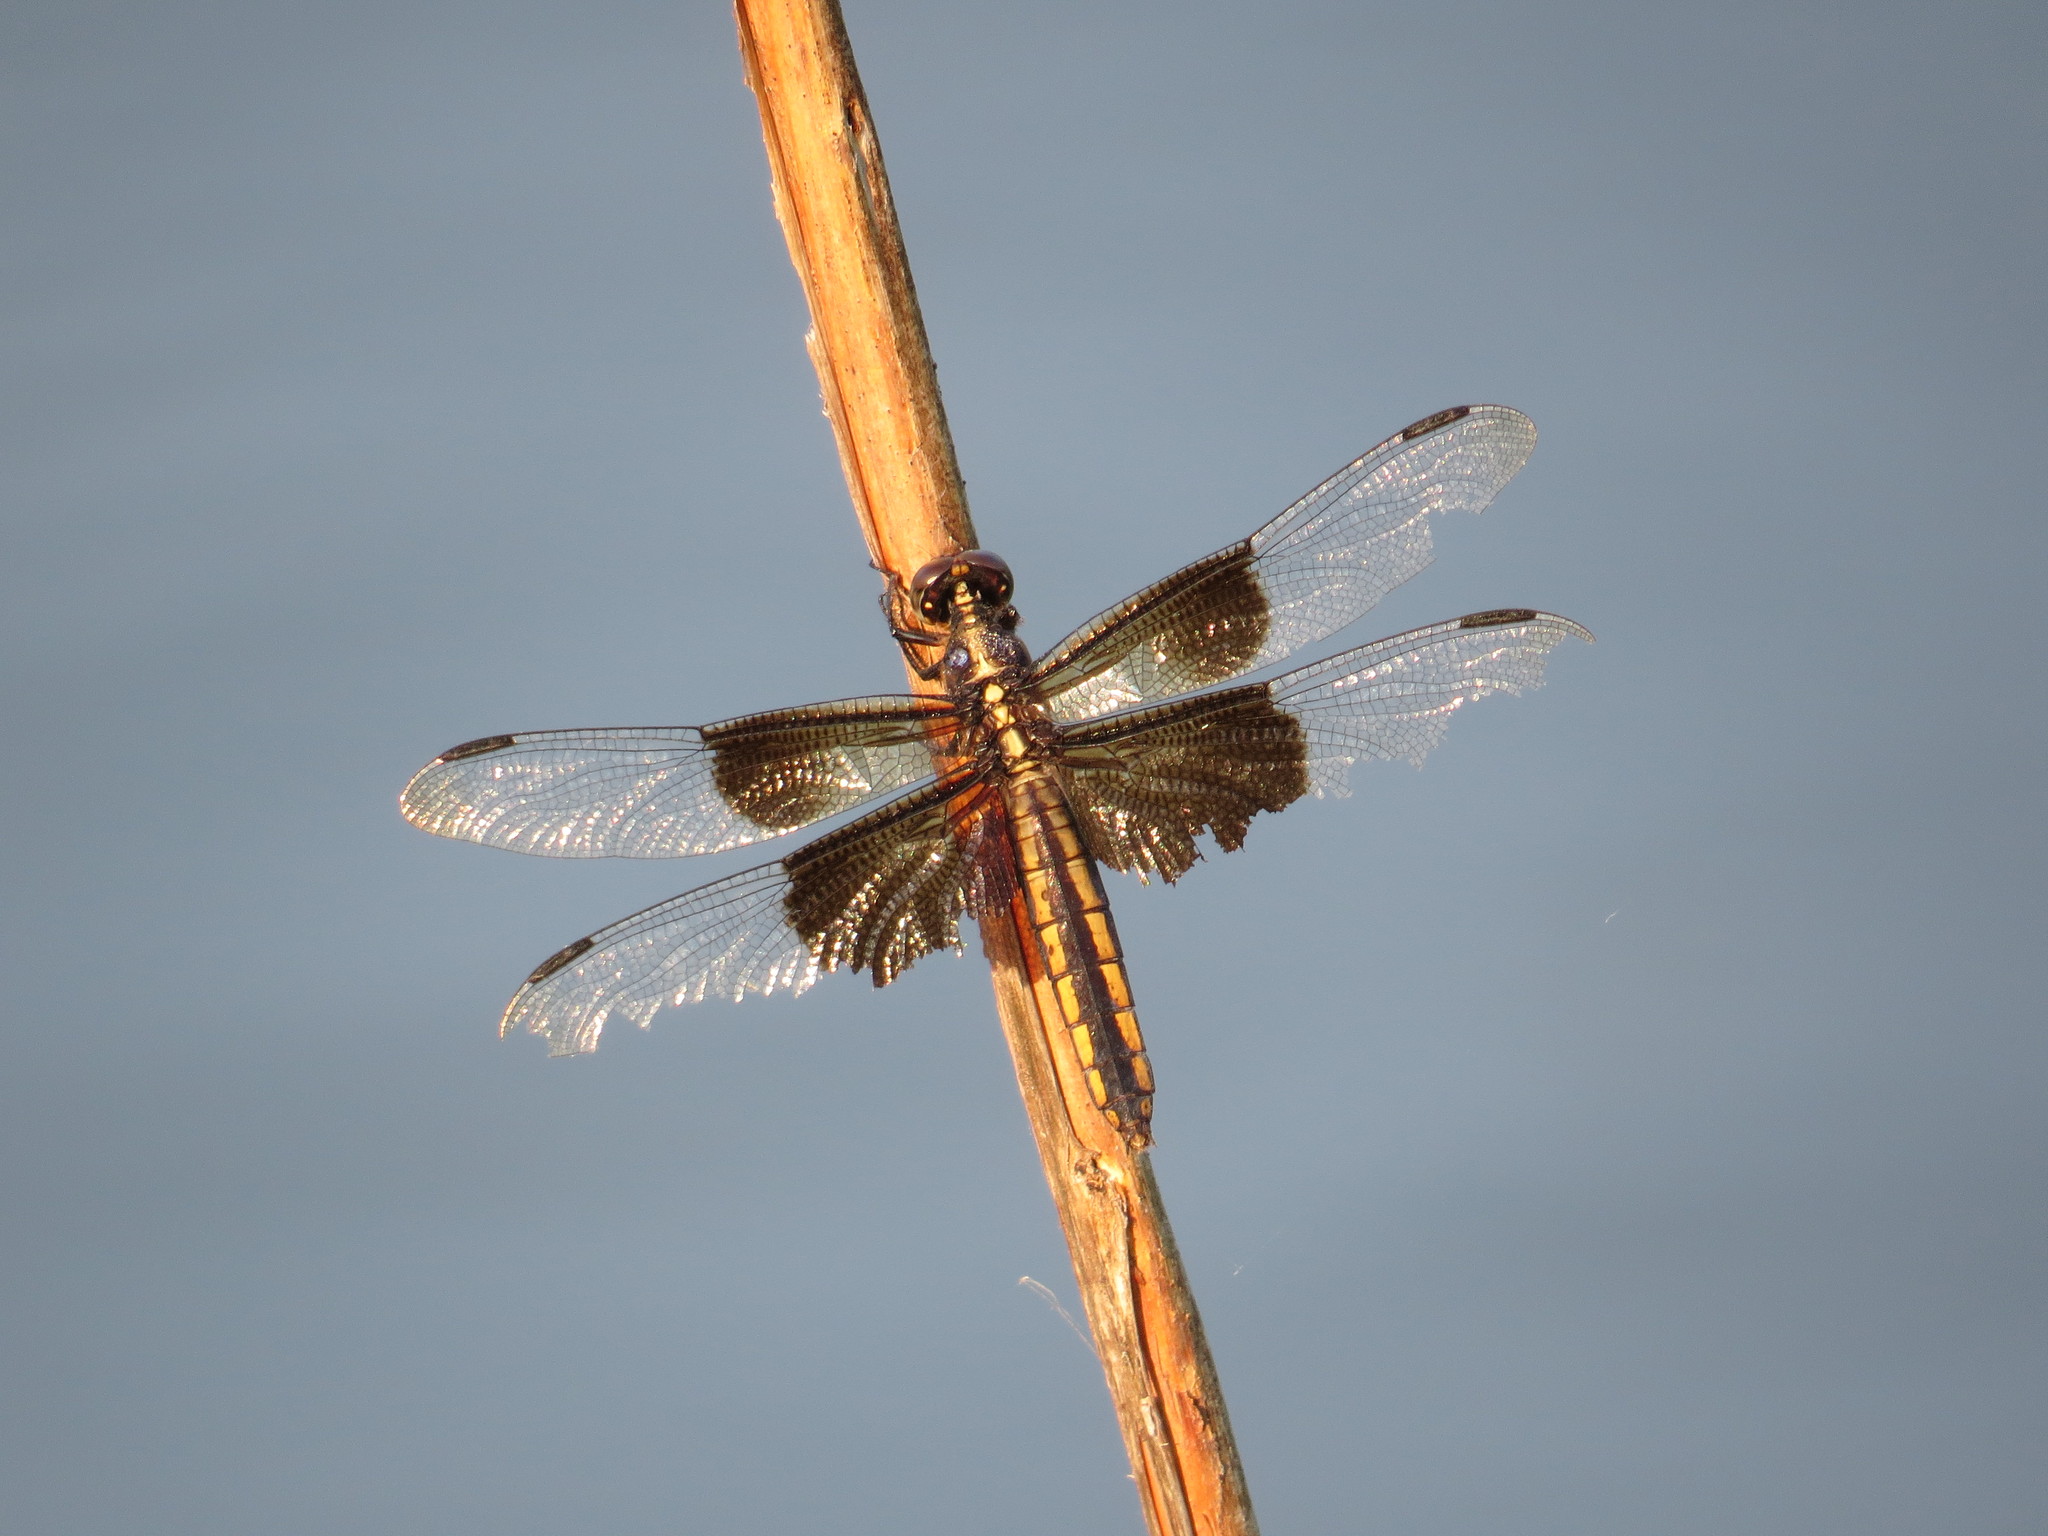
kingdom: Animalia
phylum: Arthropoda
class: Insecta
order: Odonata
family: Libellulidae
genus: Libellula
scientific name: Libellula luctuosa
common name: Widow skimmer
